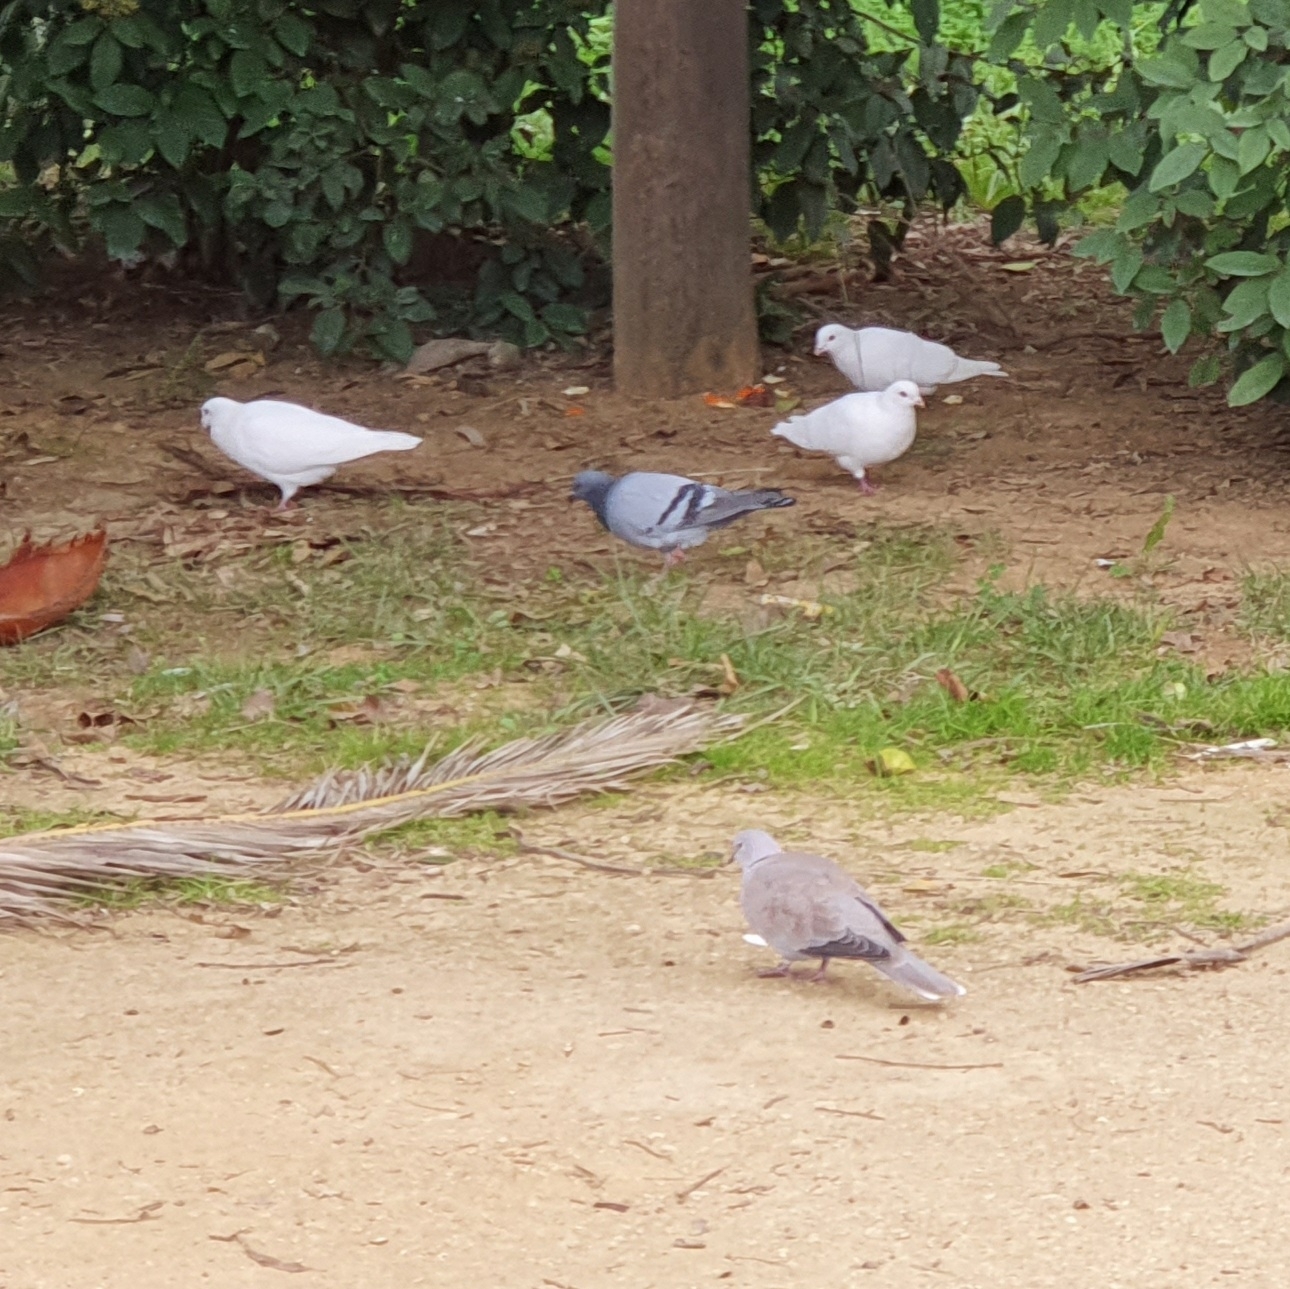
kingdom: Animalia
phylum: Chordata
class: Aves
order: Columbiformes
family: Columbidae
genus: Streptopelia
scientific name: Streptopelia decaocto
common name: Eurasian collared dove
